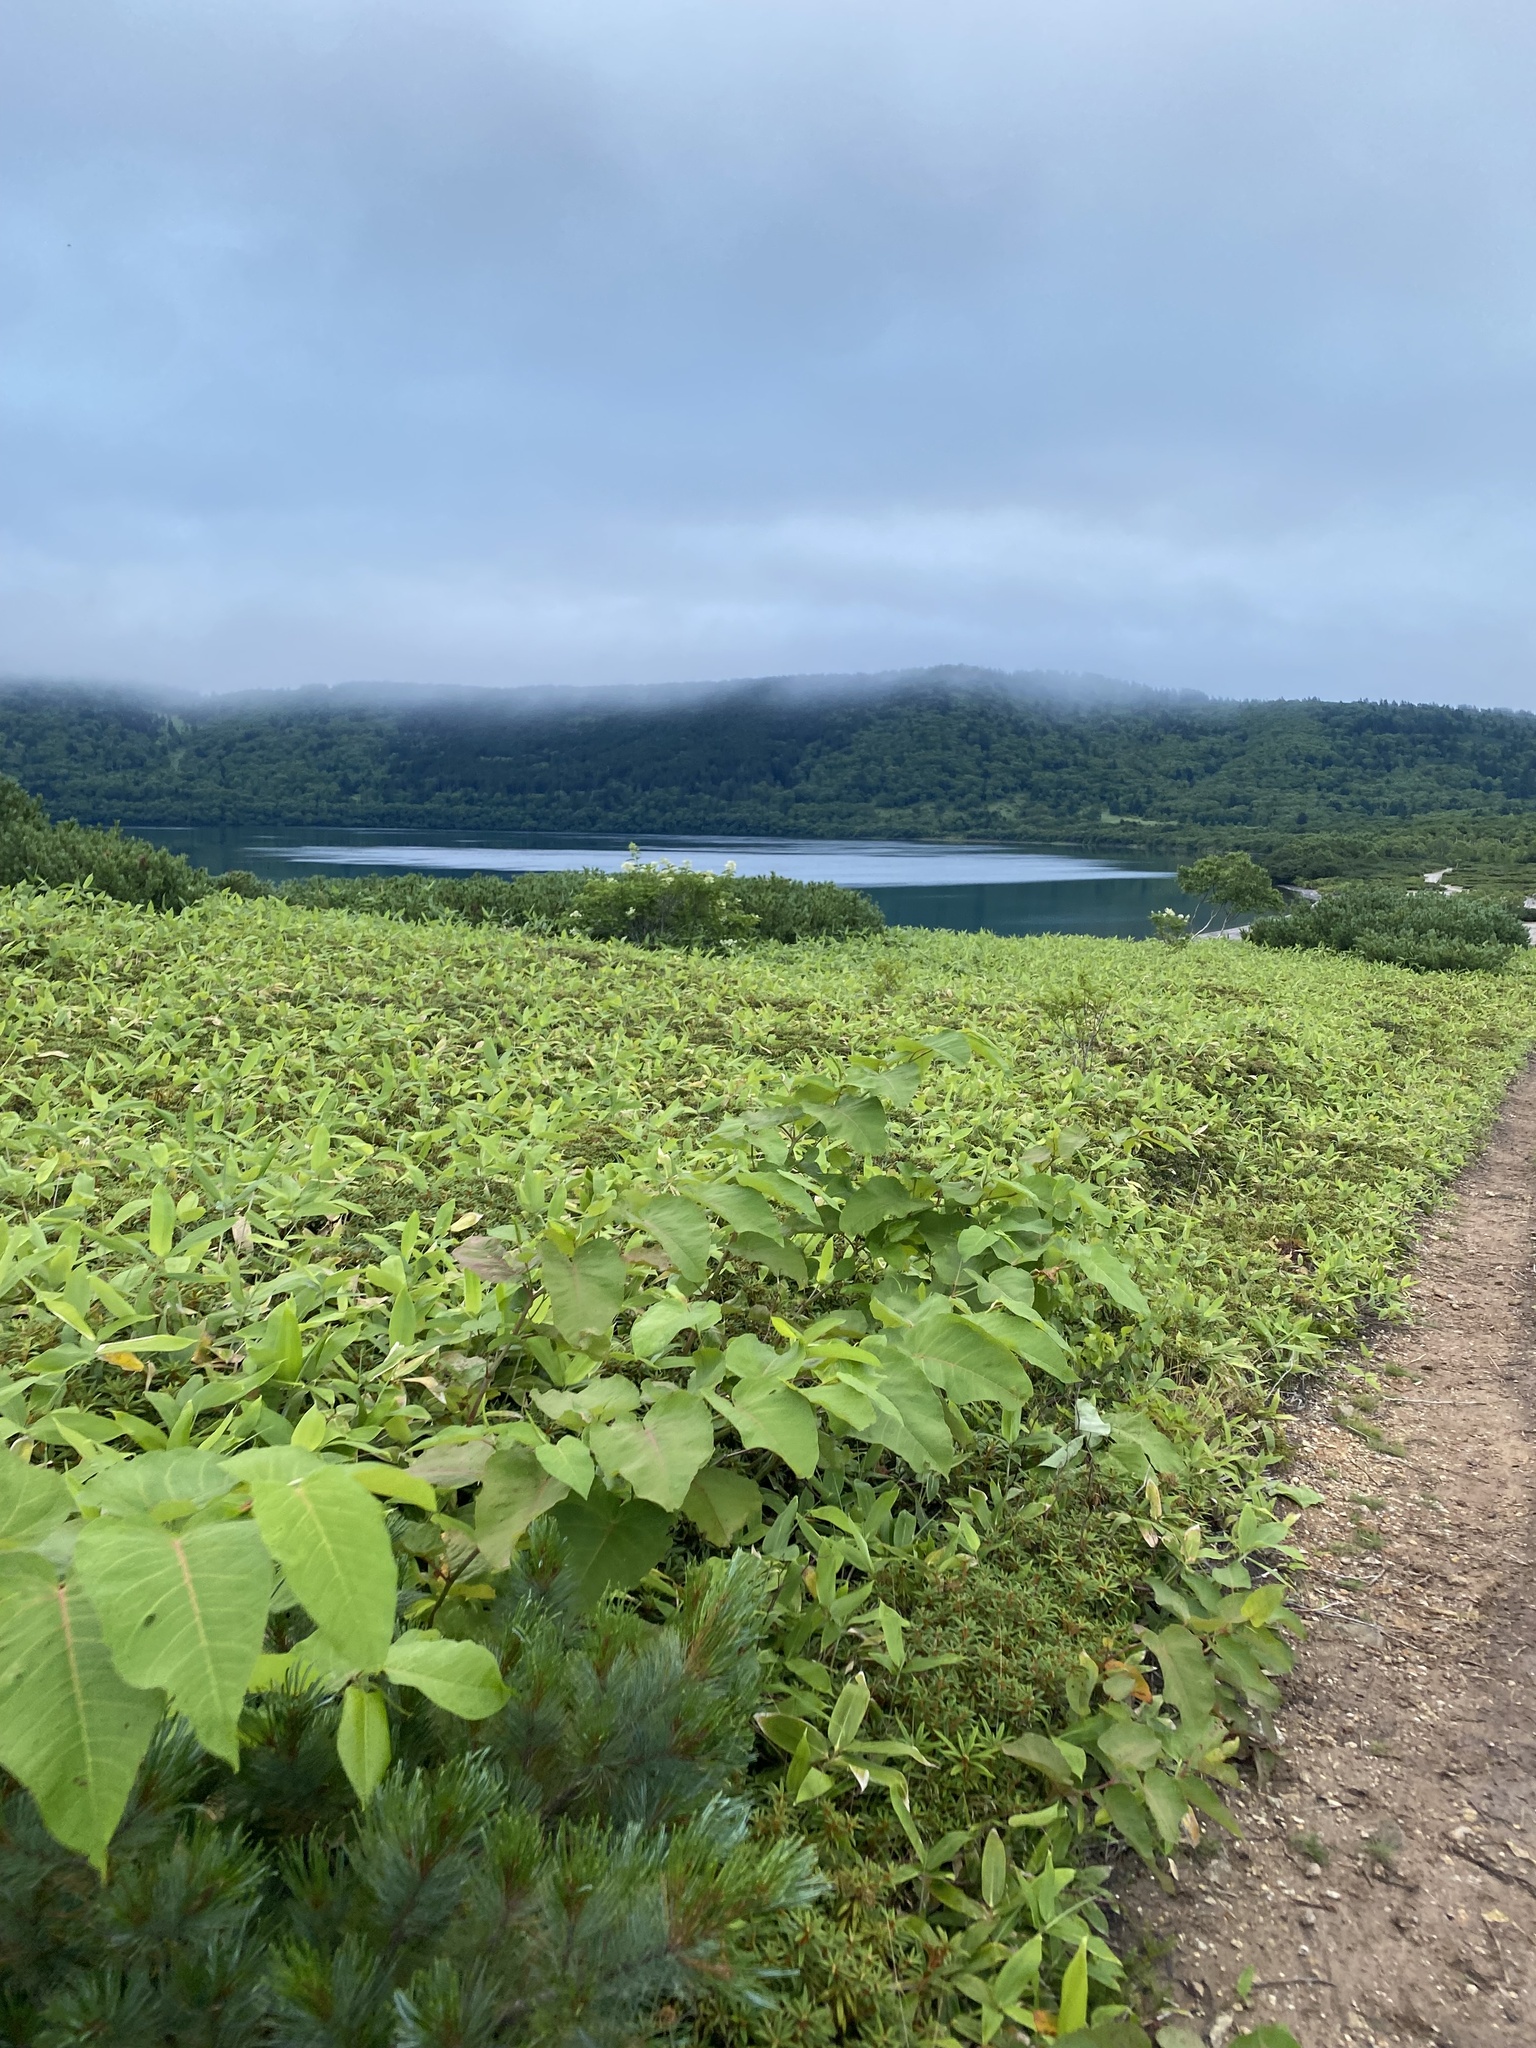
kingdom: Plantae
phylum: Tracheophyta
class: Magnoliopsida
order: Caryophyllales
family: Polygonaceae
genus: Reynoutria
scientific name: Reynoutria sachalinensis
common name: Giant knotweed
